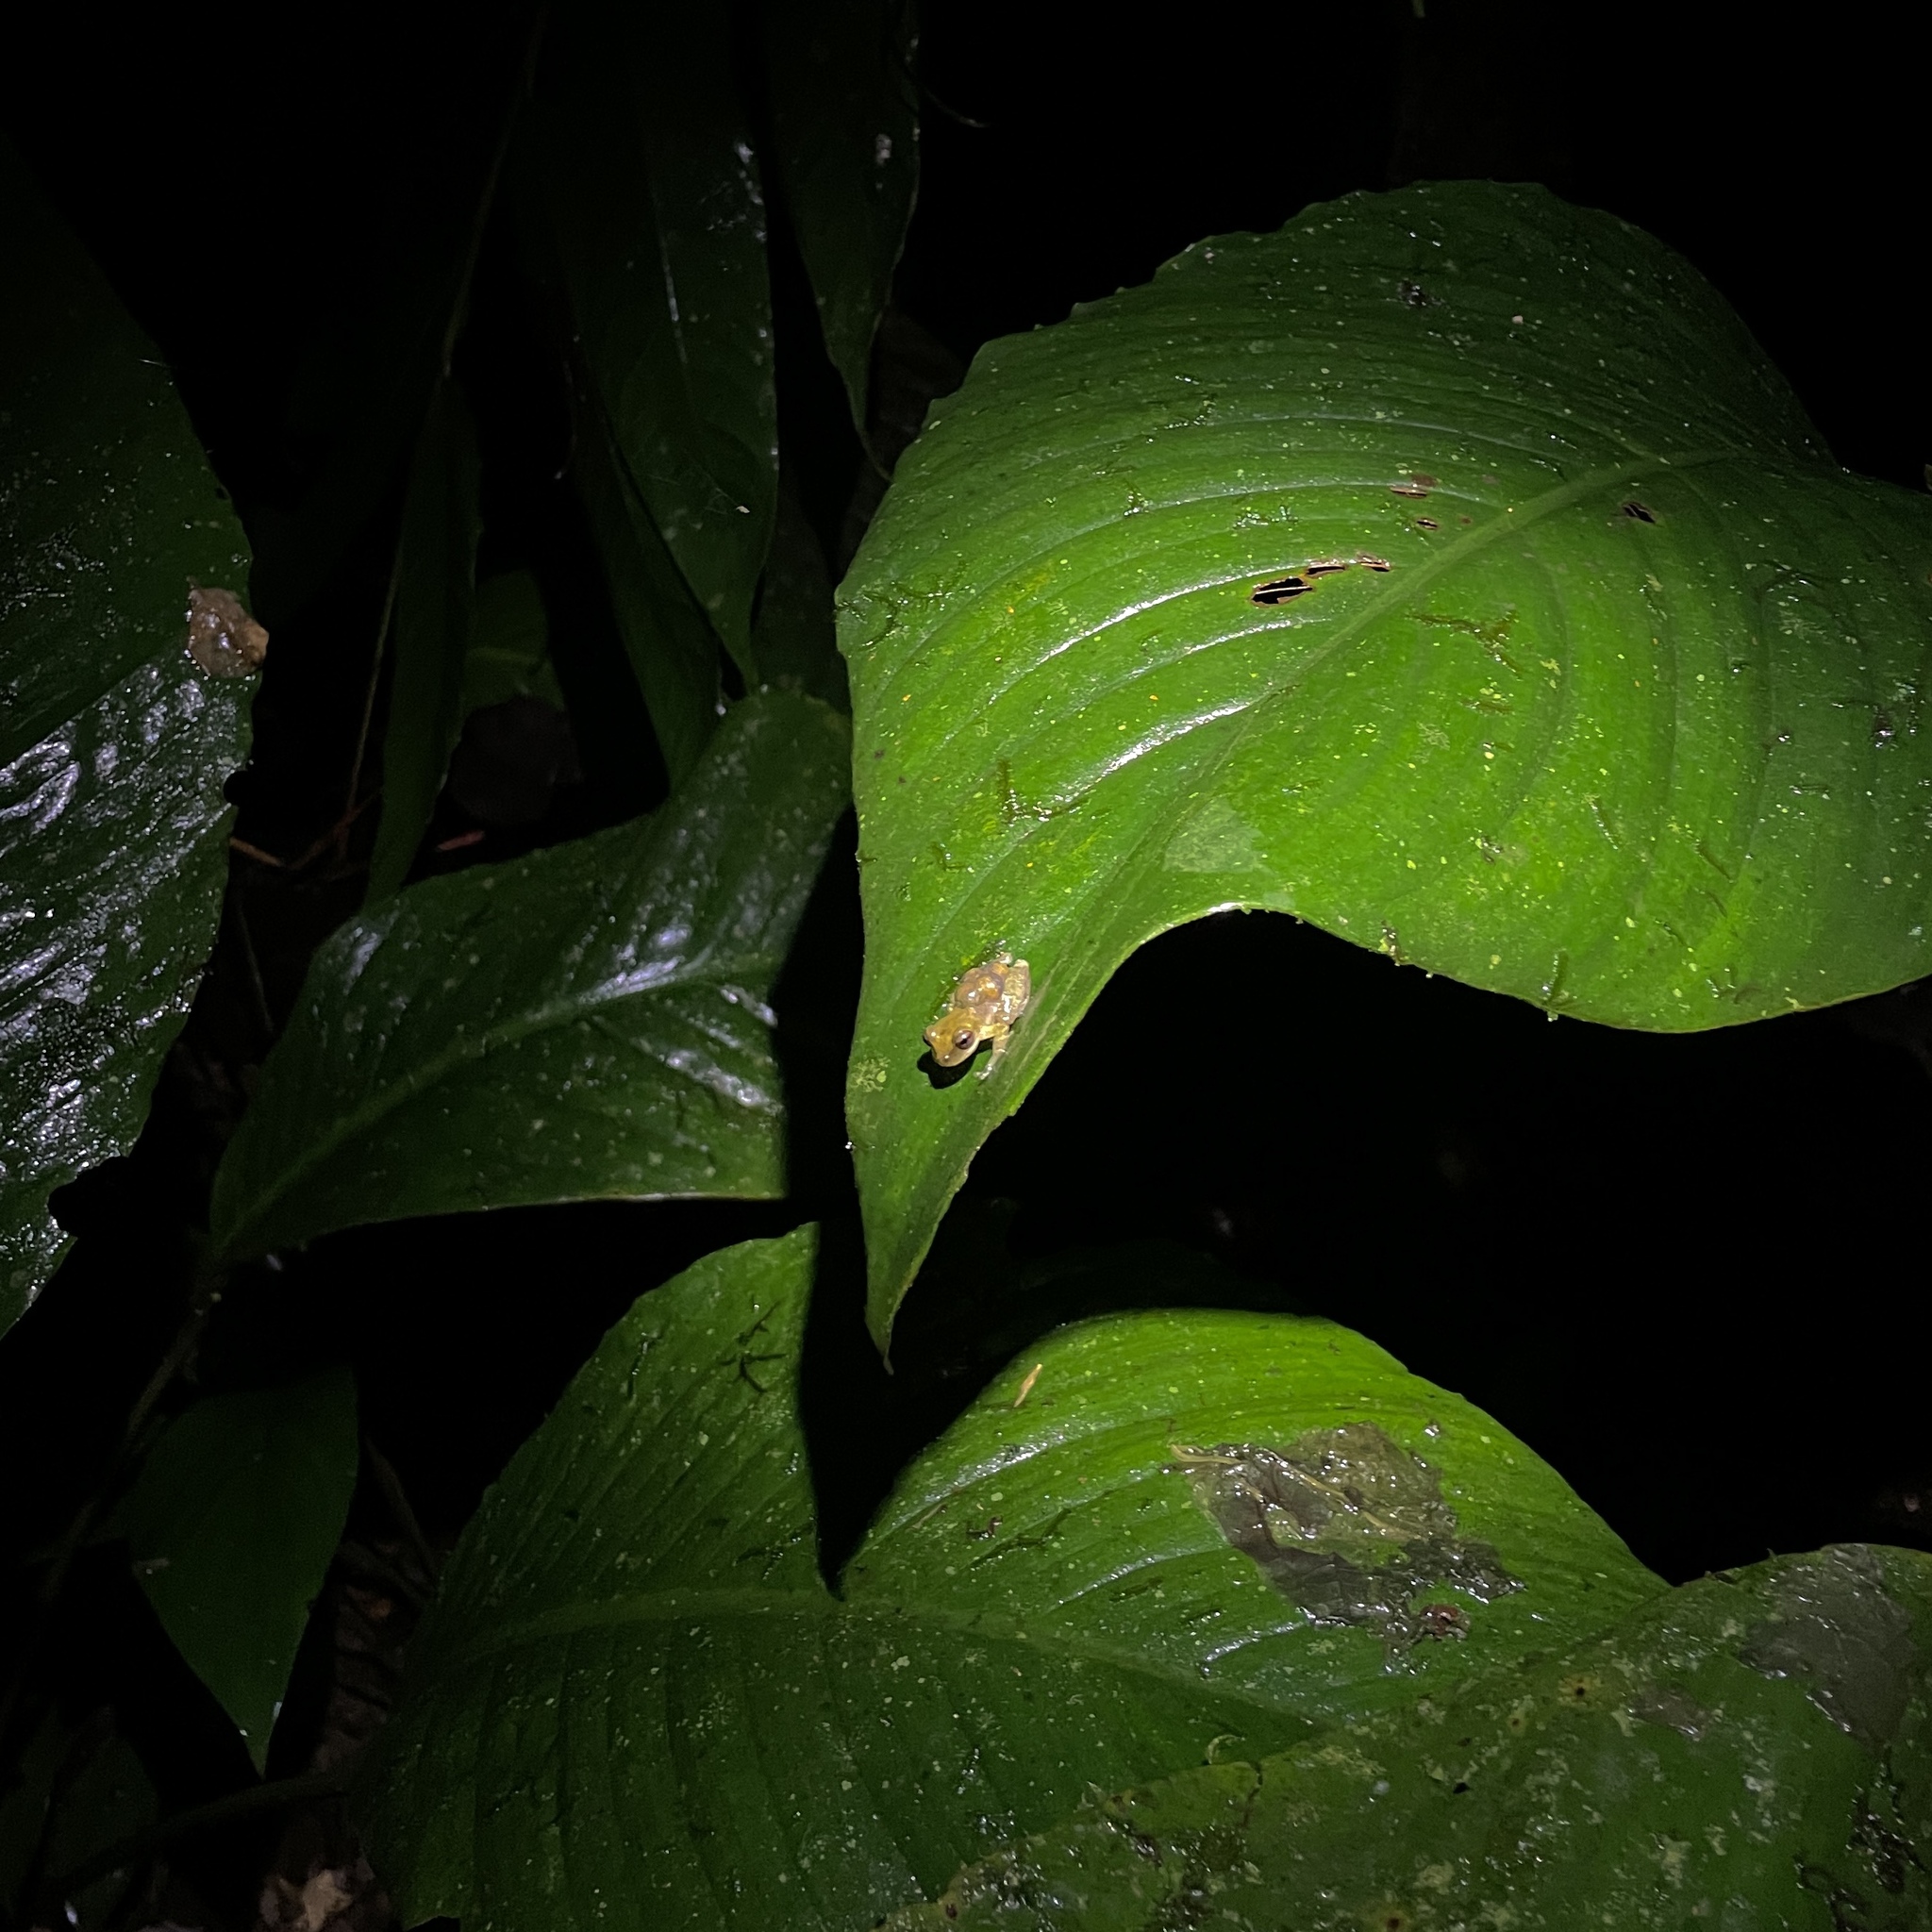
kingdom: Animalia
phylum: Chordata
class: Amphibia
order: Anura
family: Hemiphractidae
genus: Flectonotus
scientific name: Flectonotus fitzgeraldi
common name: Marsupial frog
